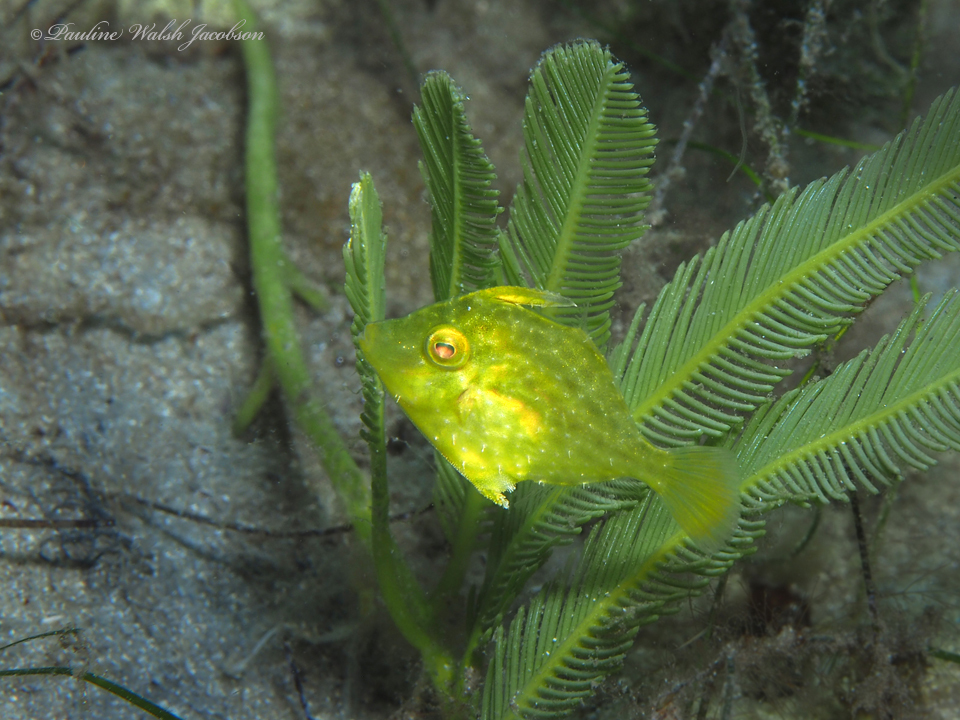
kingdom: Animalia
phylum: Chordata
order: Tetraodontiformes
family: Monacanthidae
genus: Stephanolepis
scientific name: Stephanolepis hispidus
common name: Planehead filefish
